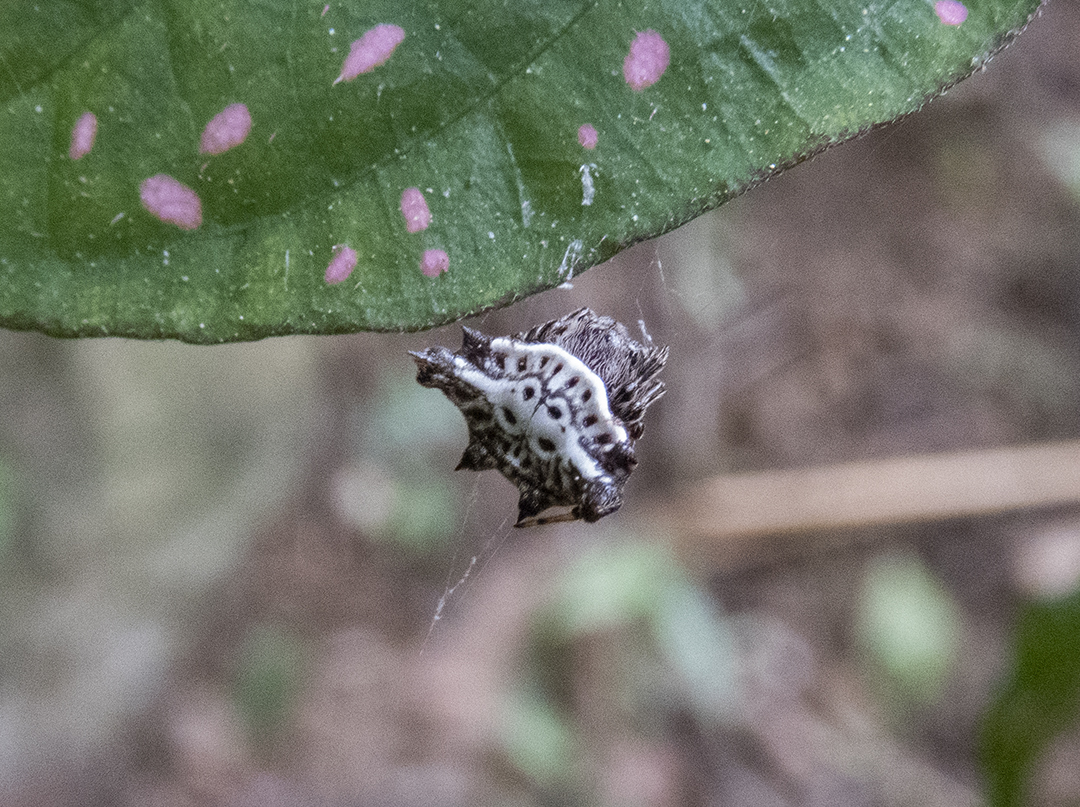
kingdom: Animalia
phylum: Arthropoda
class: Arachnida
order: Araneae
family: Araneidae
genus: Gasteracantha
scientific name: Gasteracantha unguifera
